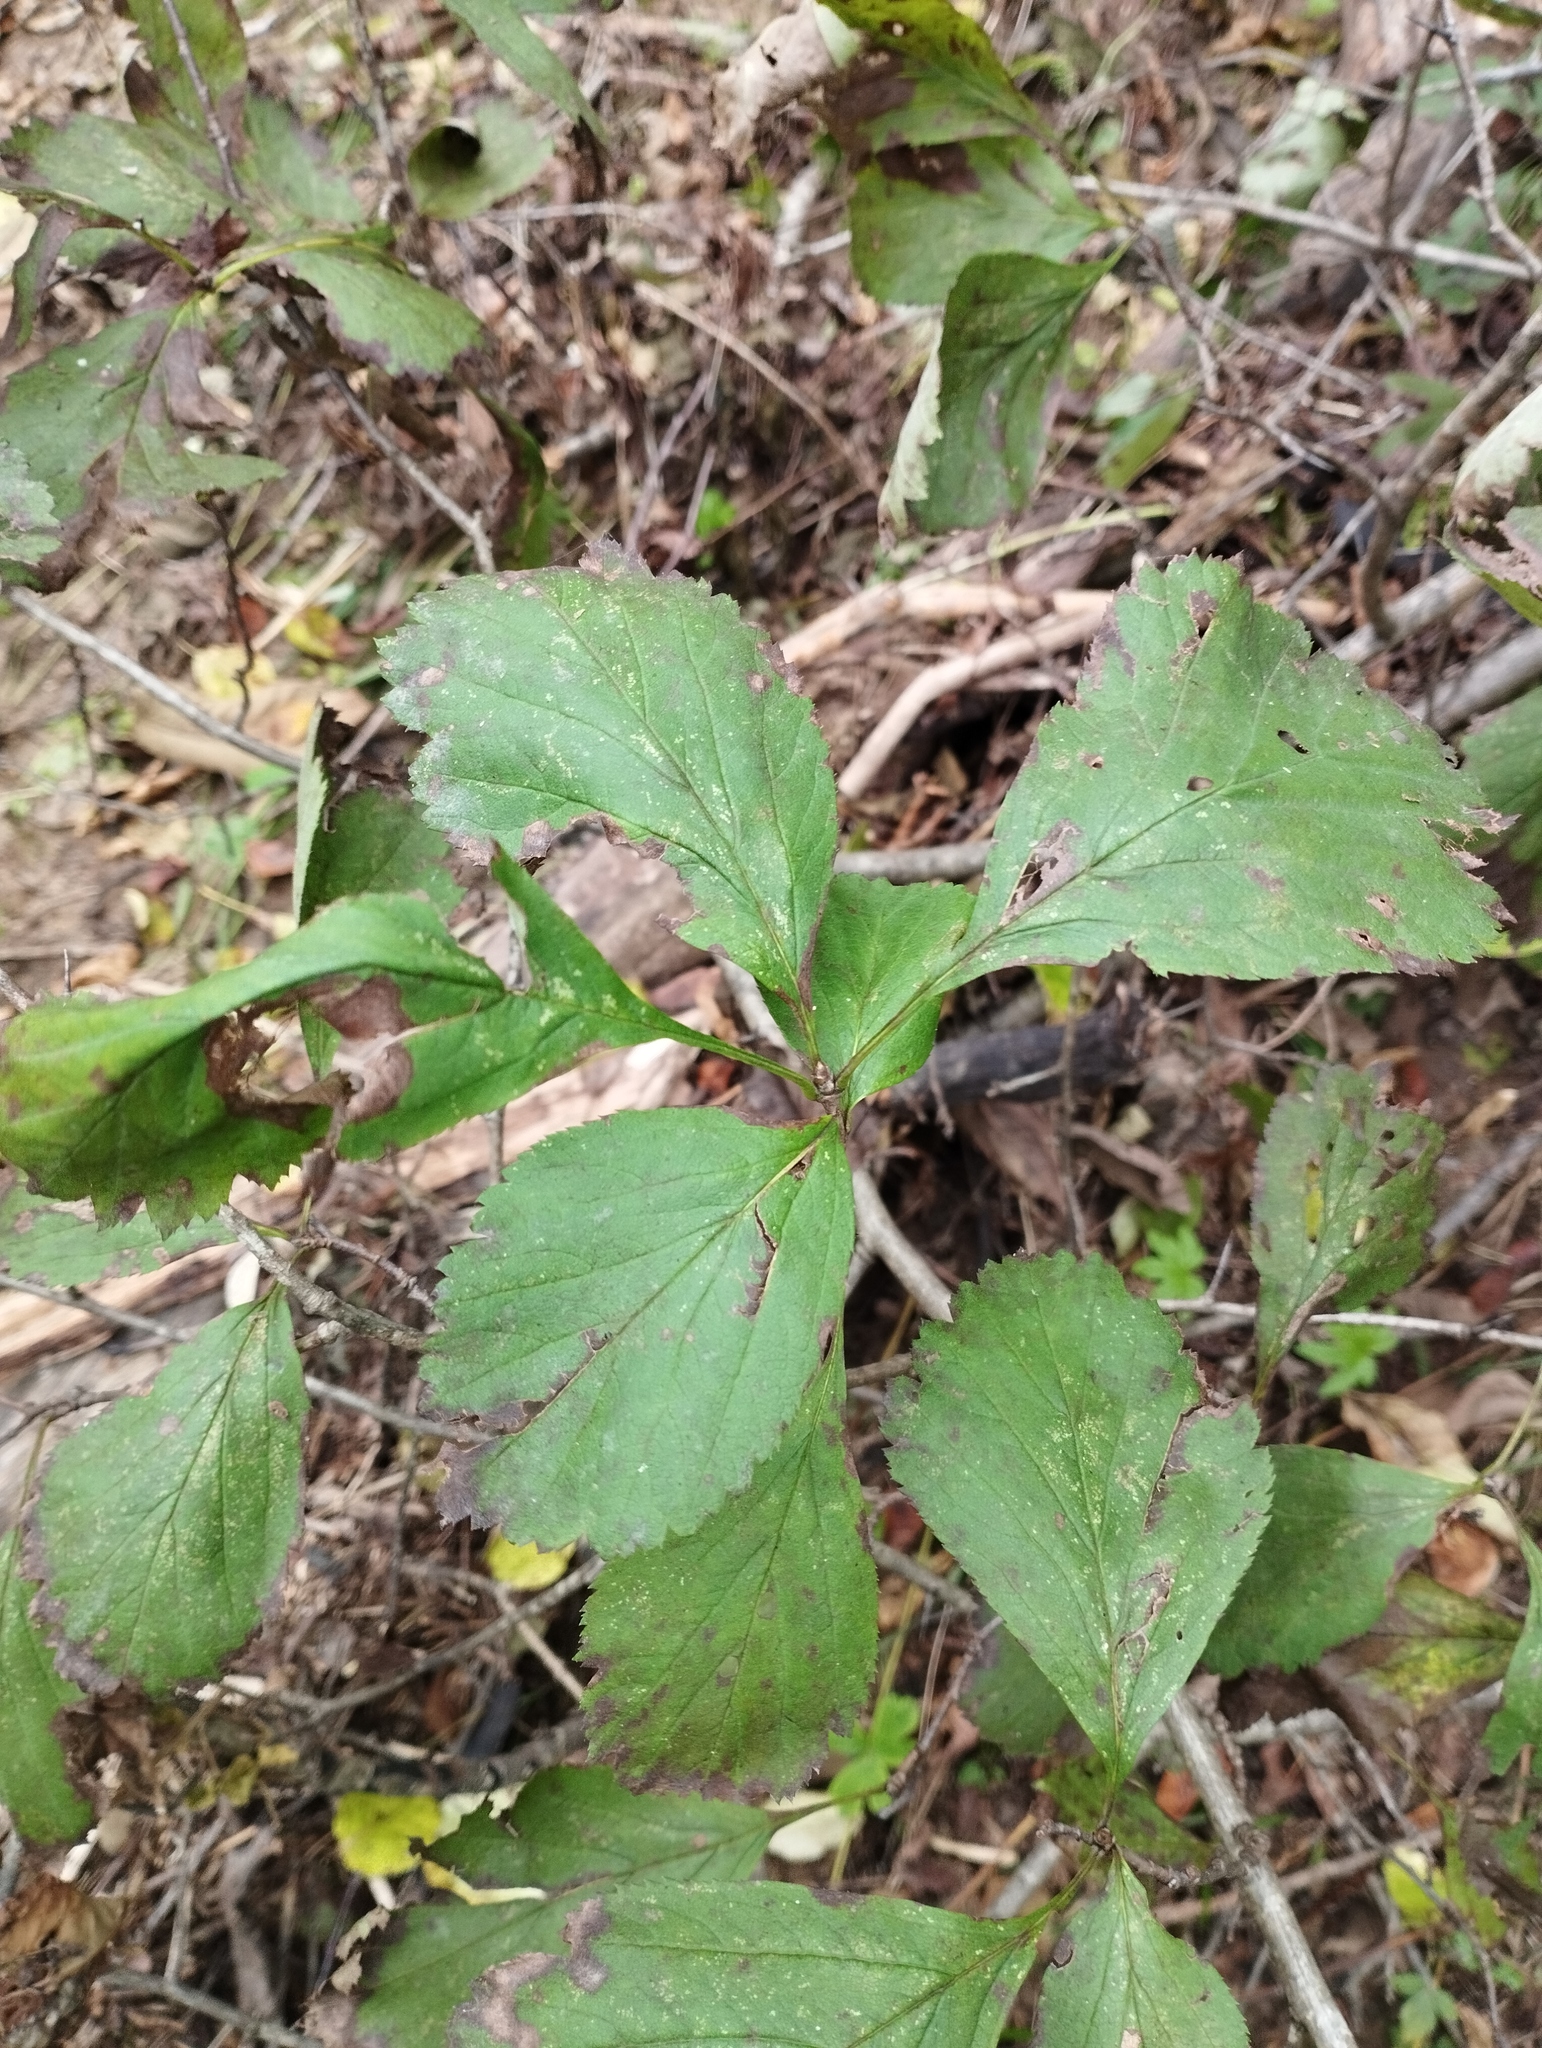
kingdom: Plantae
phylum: Tracheophyta
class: Magnoliopsida
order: Rosales
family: Rosaceae
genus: Crataegus
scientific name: Crataegus maximowiczii
